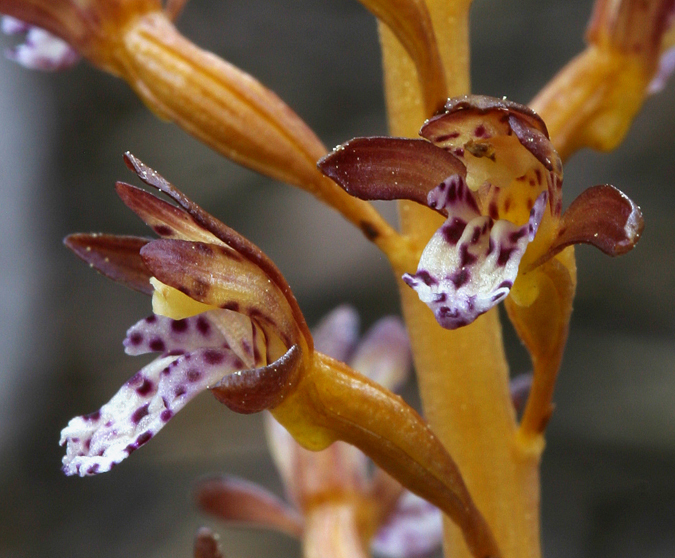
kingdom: Plantae
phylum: Tracheophyta
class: Liliopsida
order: Asparagales
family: Orchidaceae
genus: Corallorhiza
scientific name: Corallorhiza maculata
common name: Spotted coralroot
